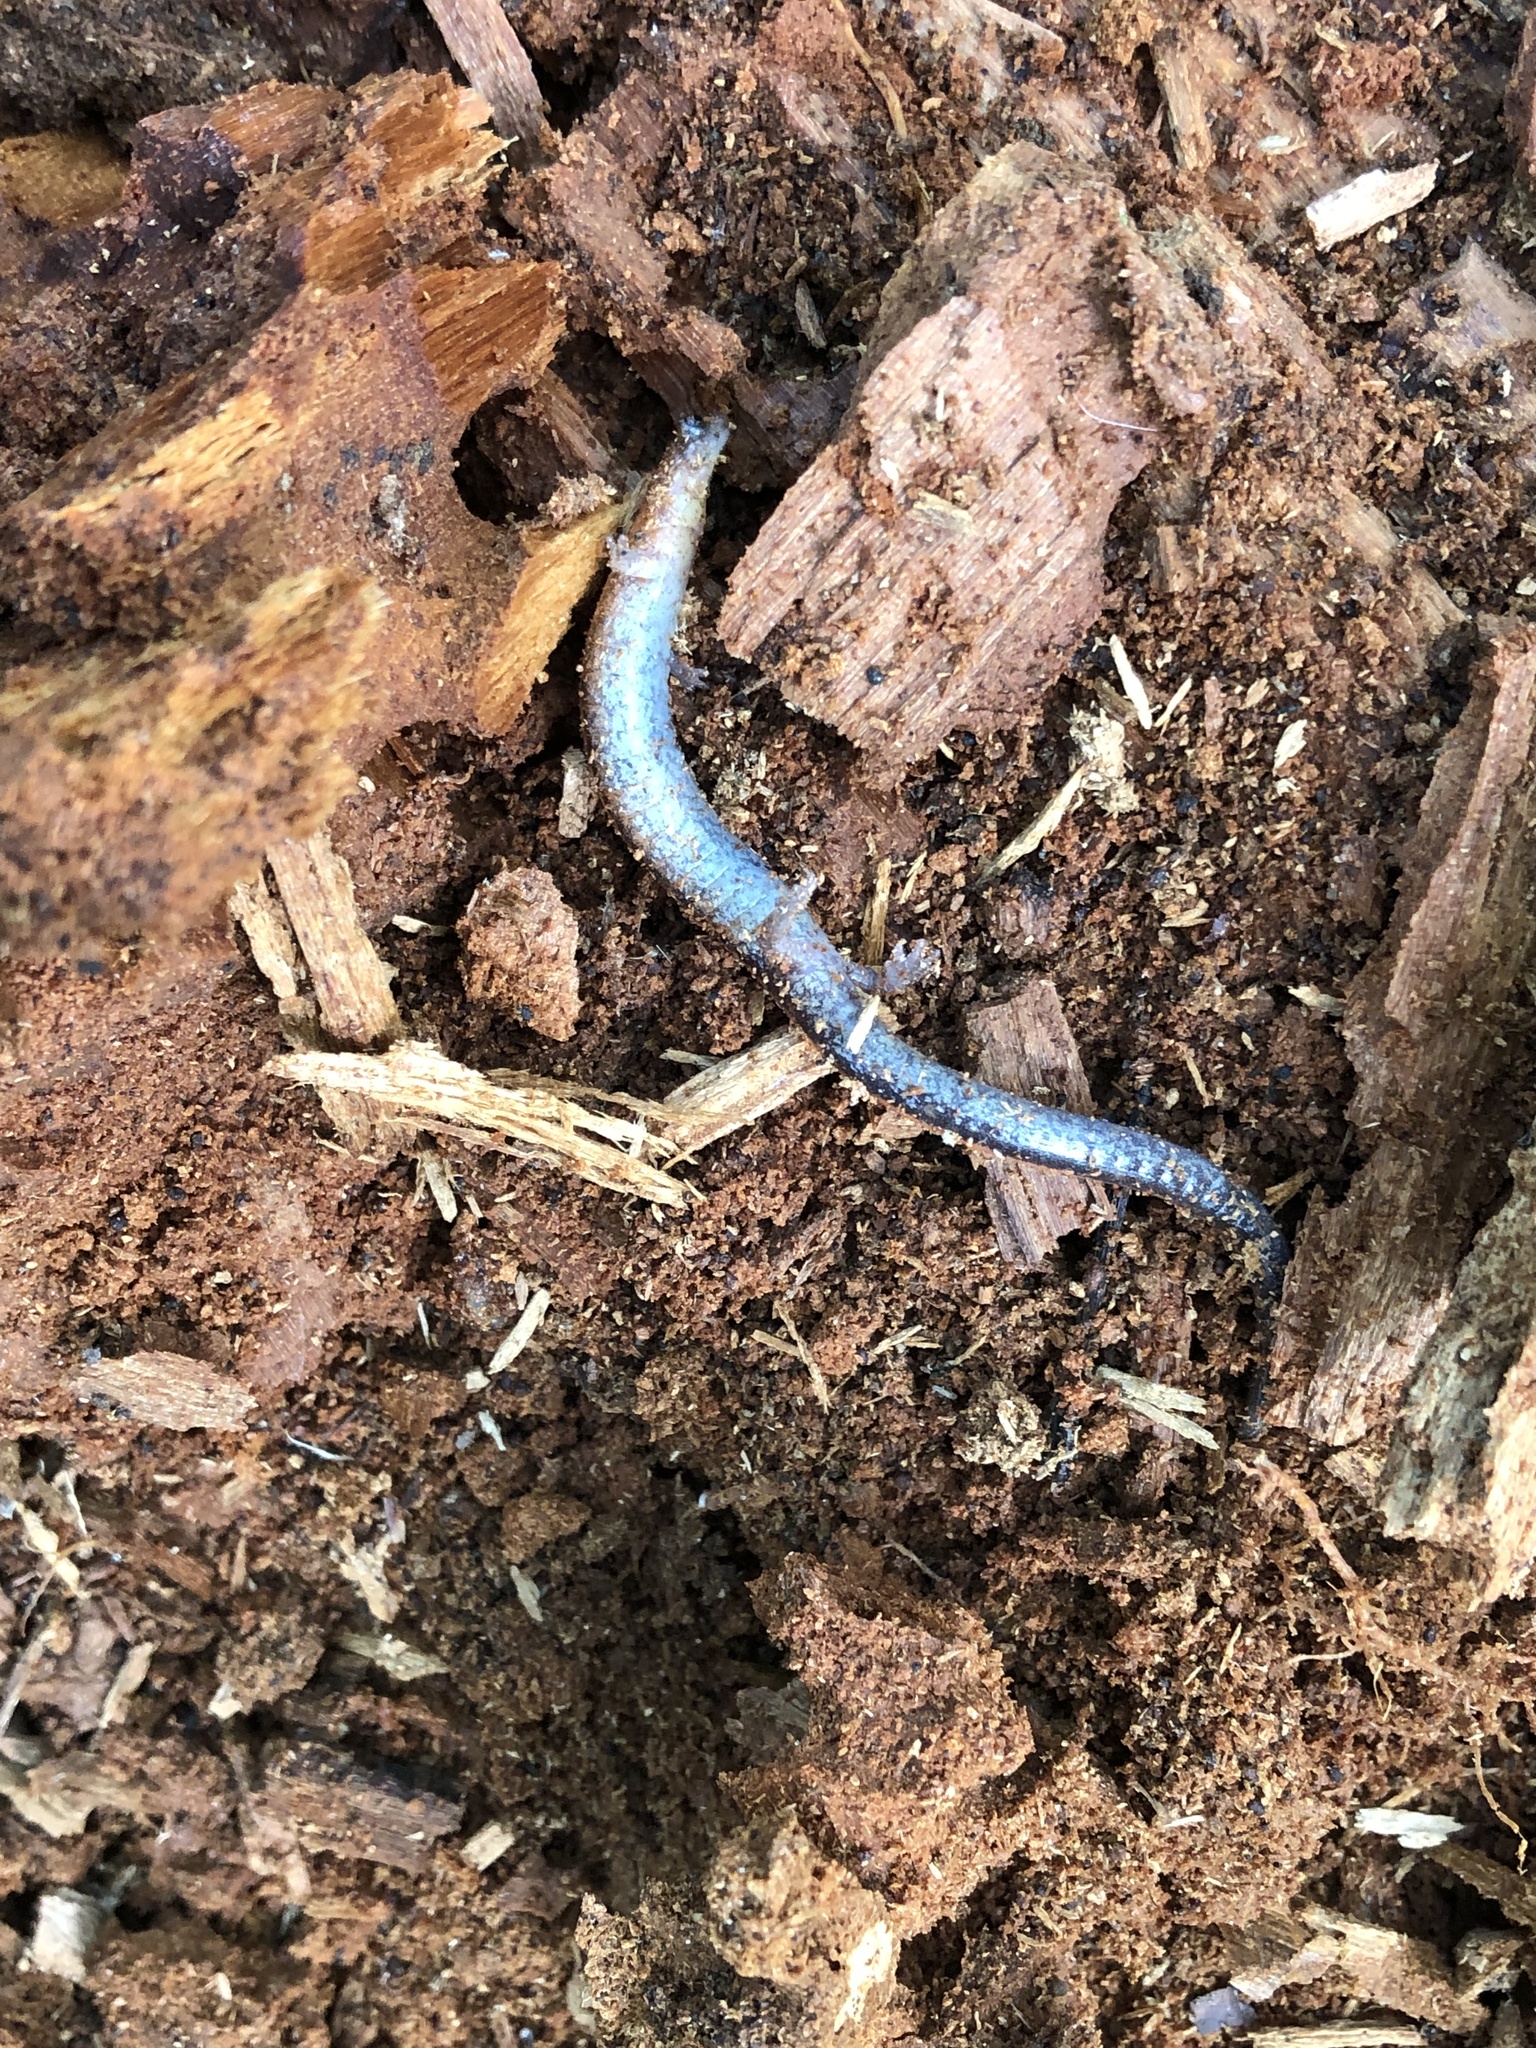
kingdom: Animalia
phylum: Chordata
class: Amphibia
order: Caudata
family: Plethodontidae
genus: Plethodon
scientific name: Plethodon cinereus
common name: Redback salamander
